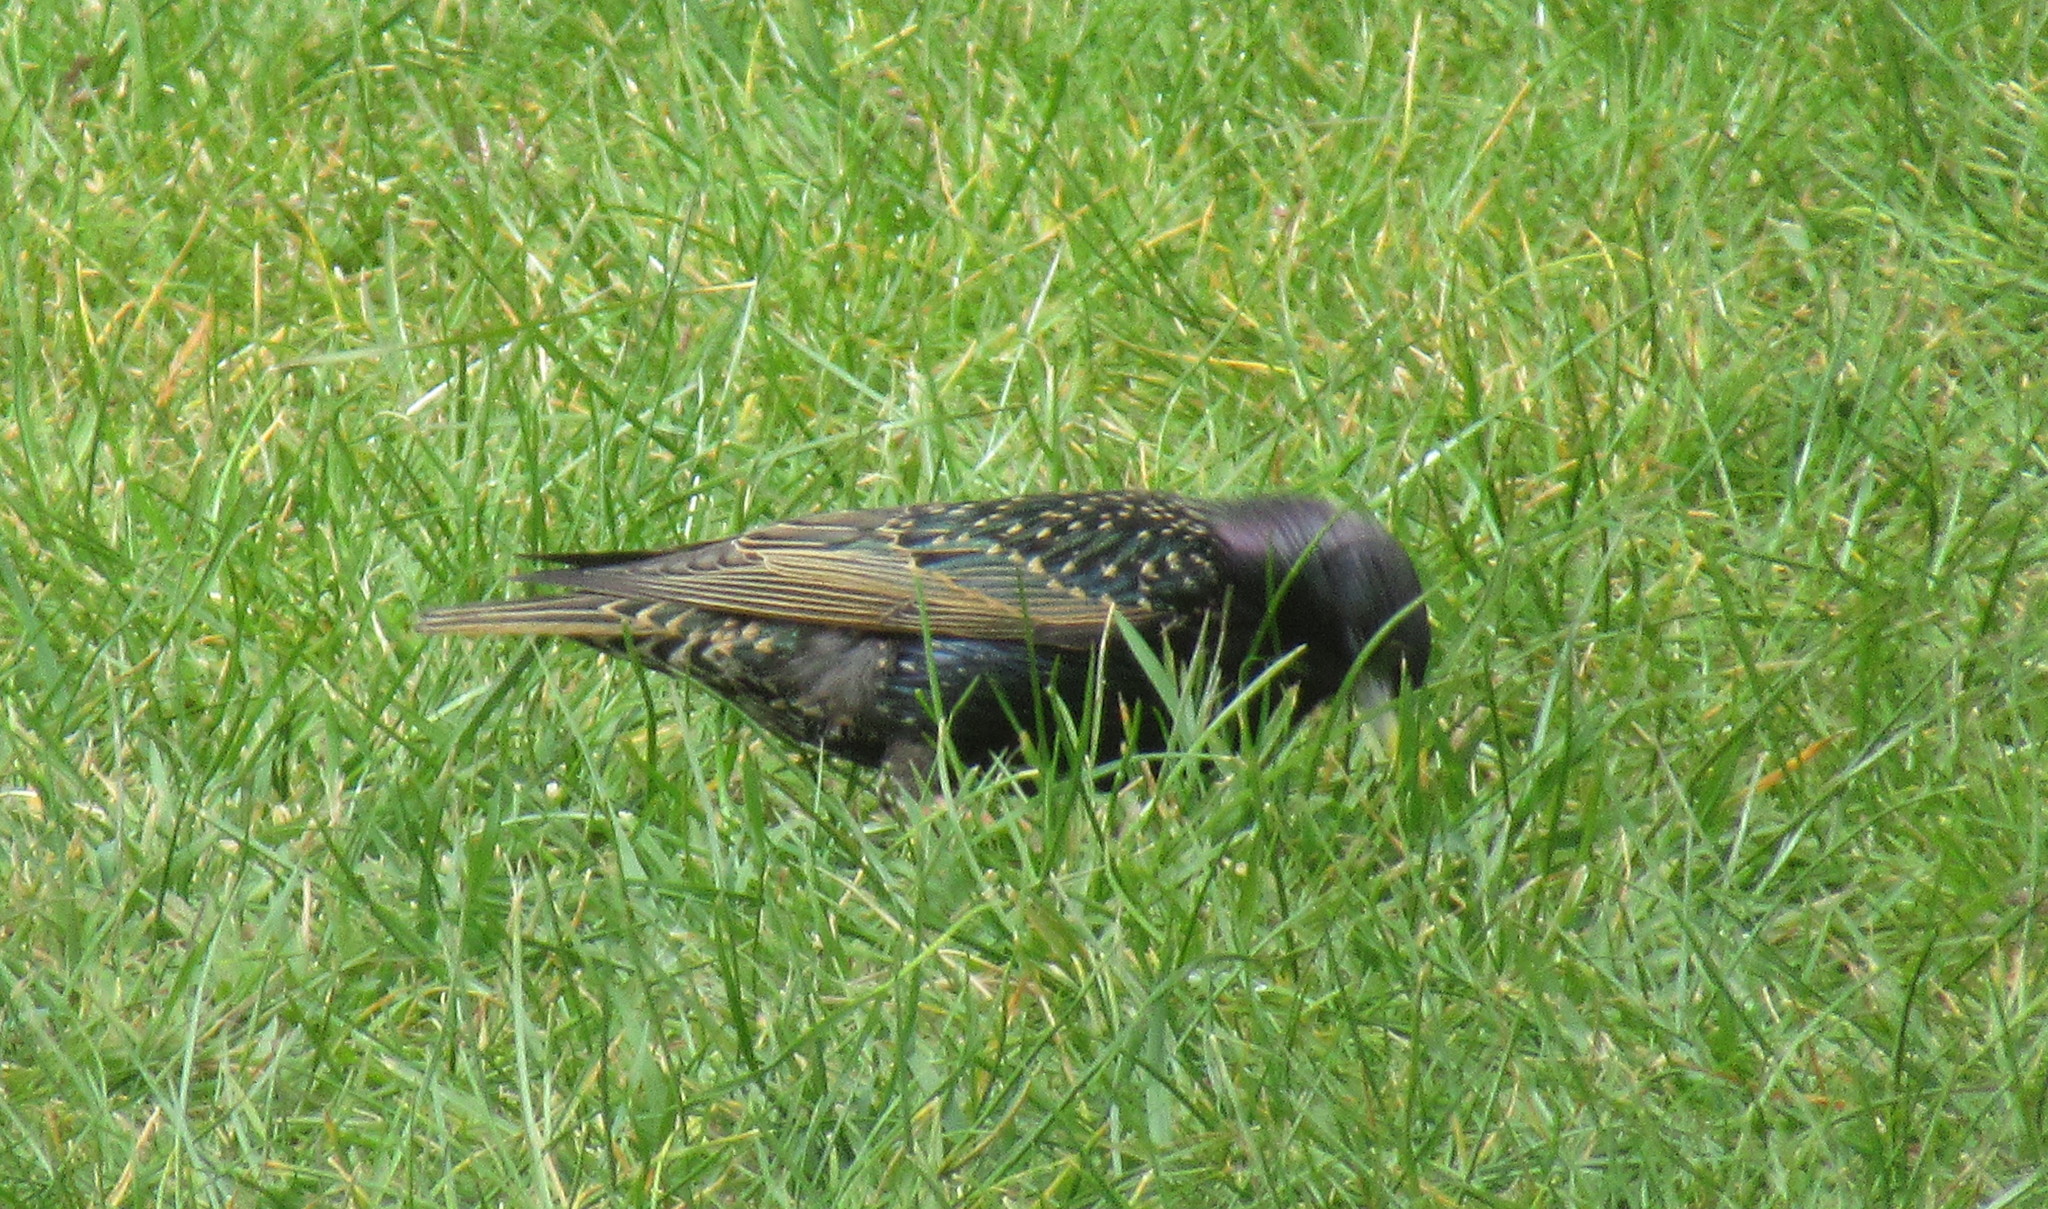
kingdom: Animalia
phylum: Chordata
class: Aves
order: Passeriformes
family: Sturnidae
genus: Sturnus
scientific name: Sturnus vulgaris
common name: Common starling
